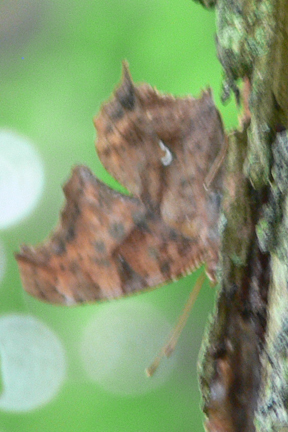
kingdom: Animalia
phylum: Arthropoda
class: Insecta
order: Lepidoptera
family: Nymphalidae
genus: Polygonia
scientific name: Polygonia comma
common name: Eastern comma
